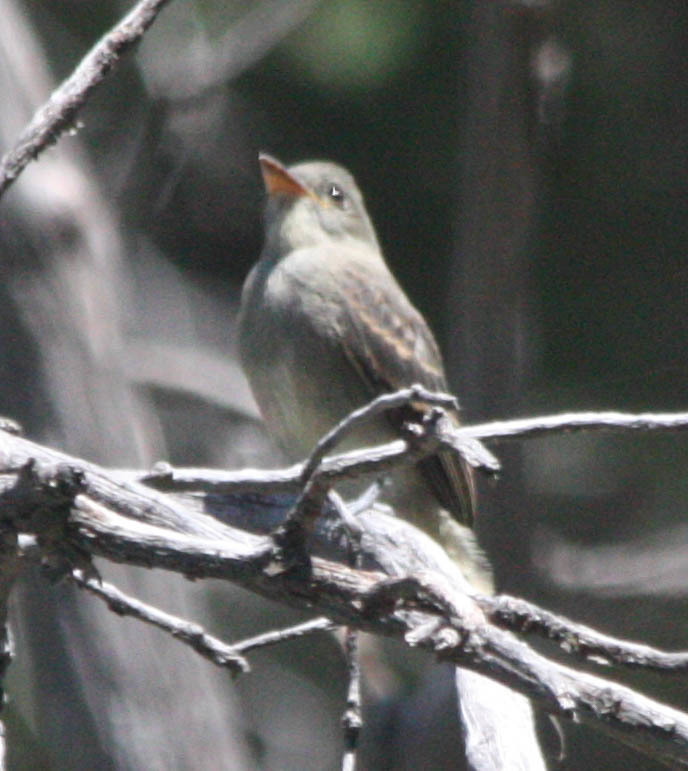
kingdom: Animalia
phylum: Chordata
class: Aves
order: Passeriformes
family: Tyrannidae
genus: Contopus
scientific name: Contopus pertinax
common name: Greater pewee
